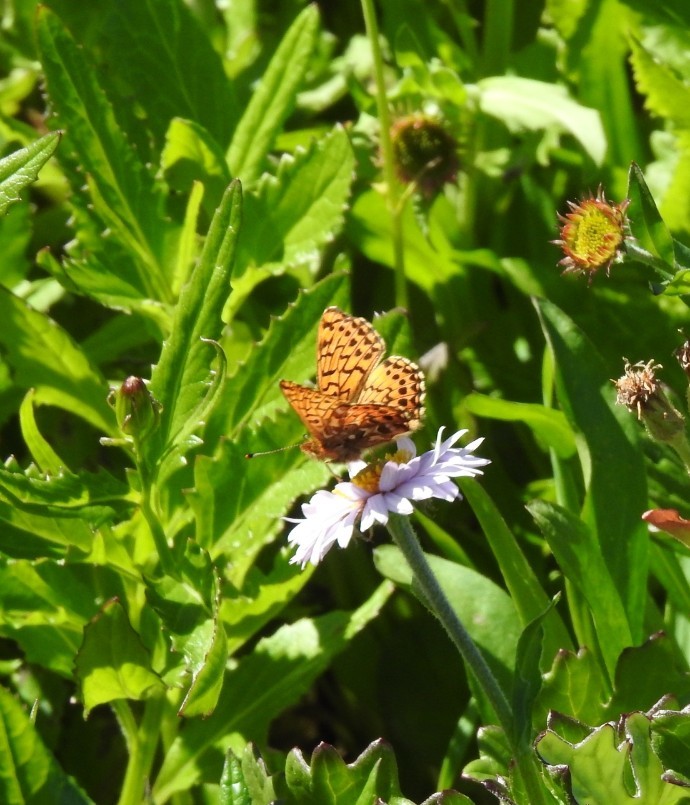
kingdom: Animalia
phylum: Arthropoda
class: Insecta
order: Lepidoptera
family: Nymphalidae
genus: Clossiana
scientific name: Clossiana chariclea
